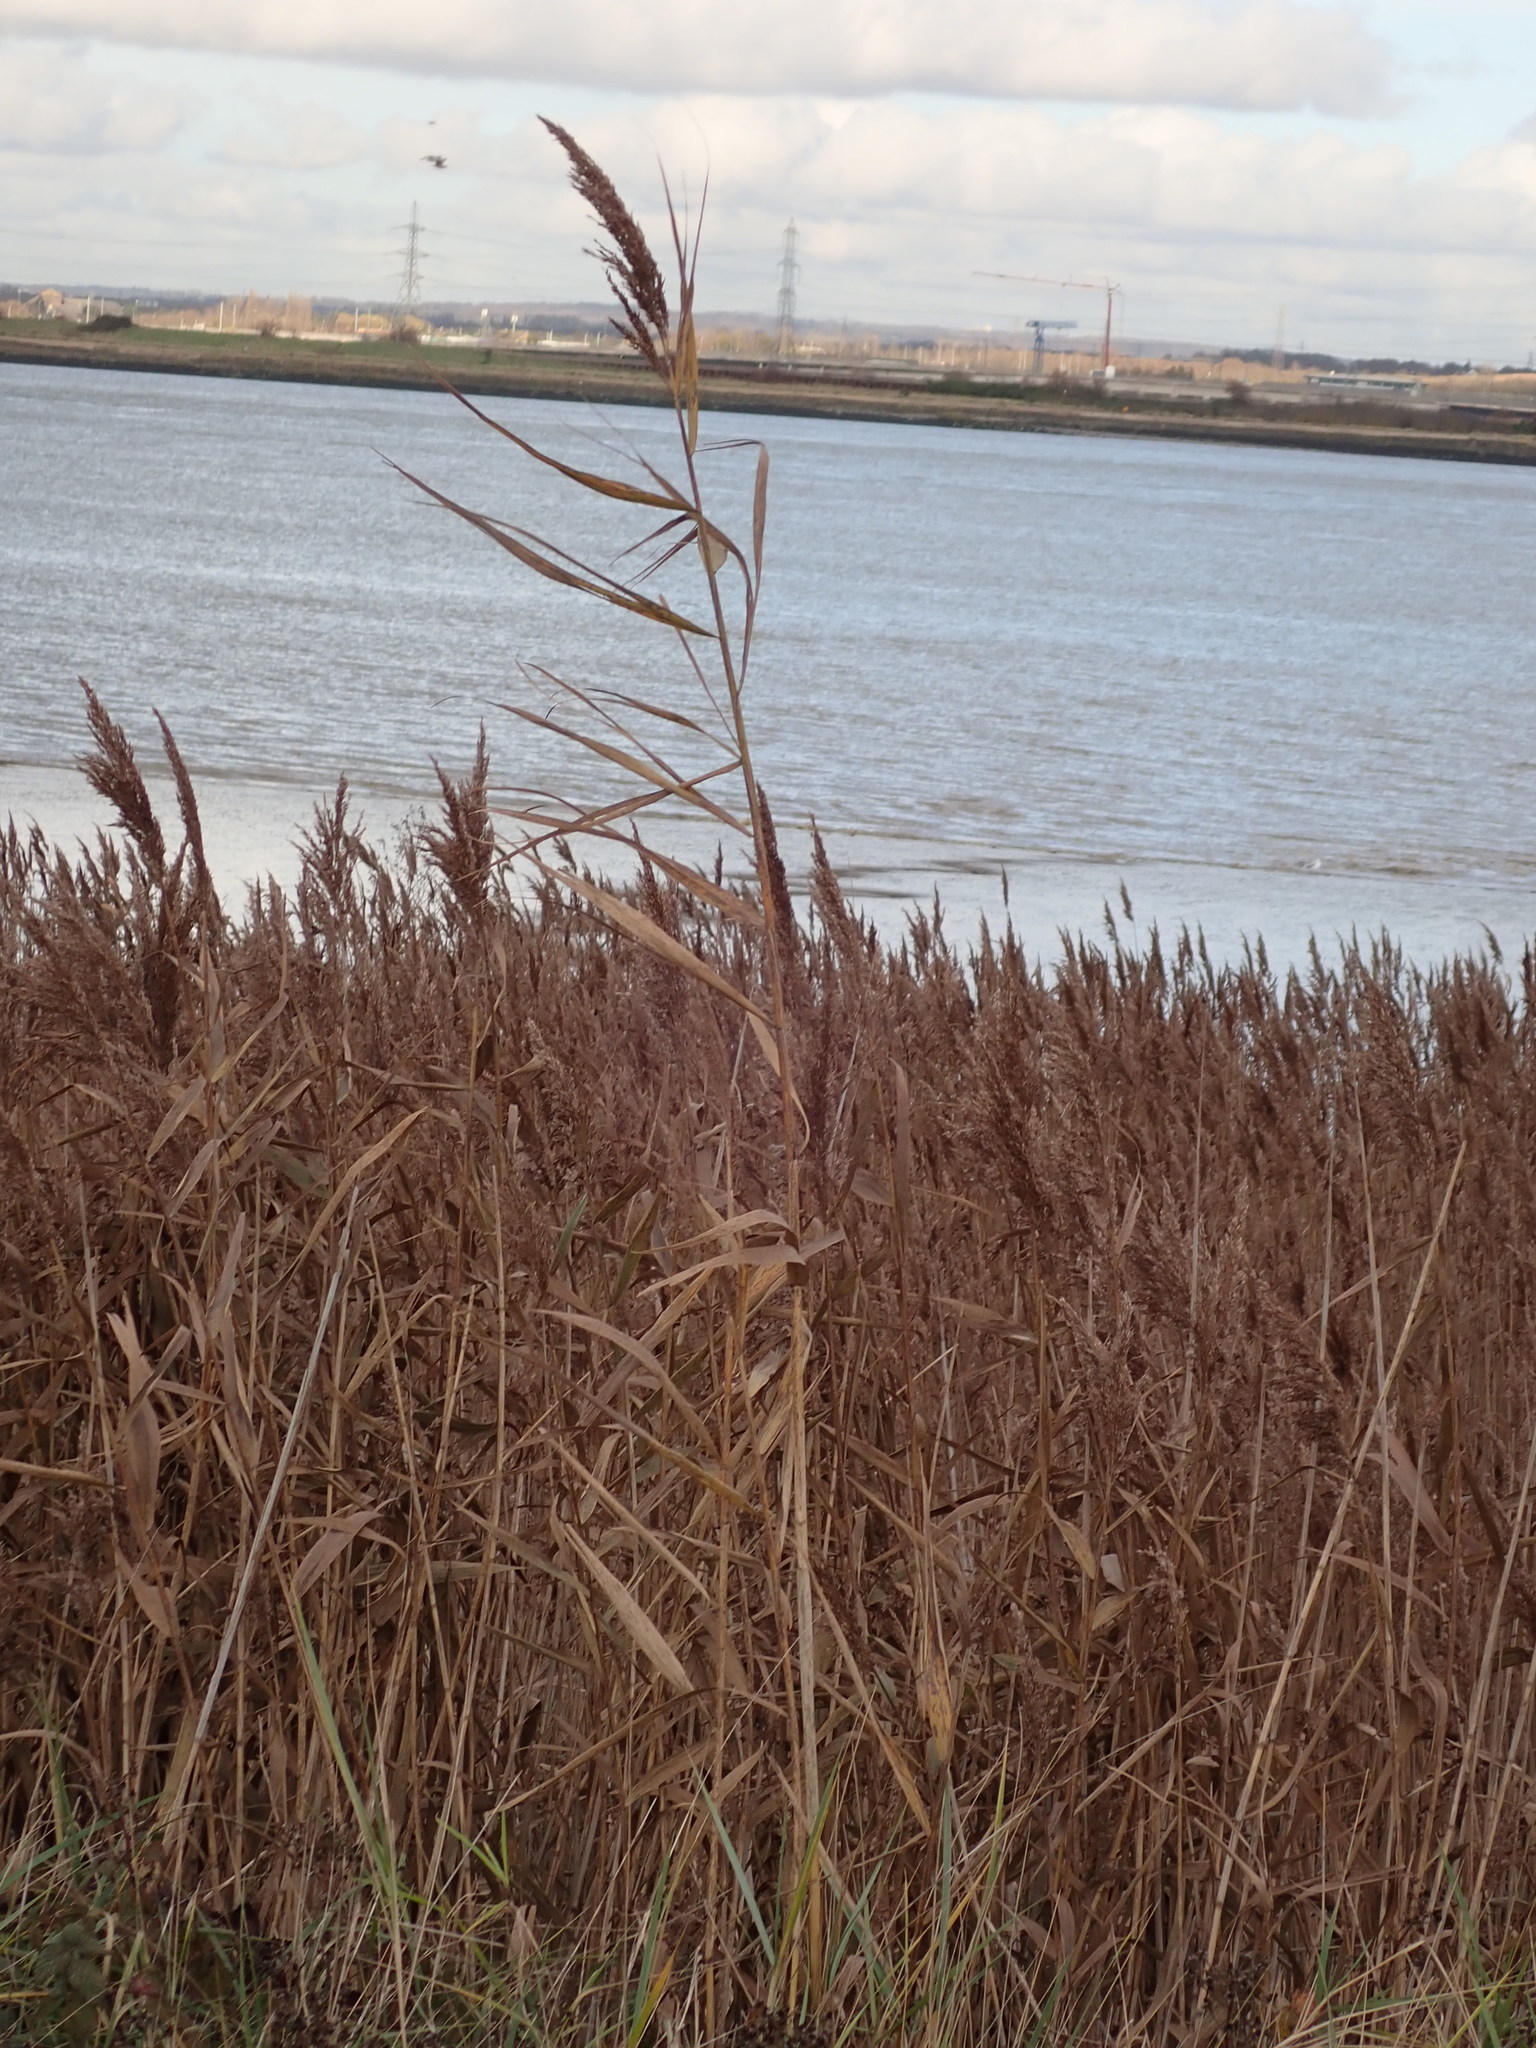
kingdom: Plantae
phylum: Tracheophyta
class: Liliopsida
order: Poales
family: Poaceae
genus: Phragmites
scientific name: Phragmites australis
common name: Common reed
